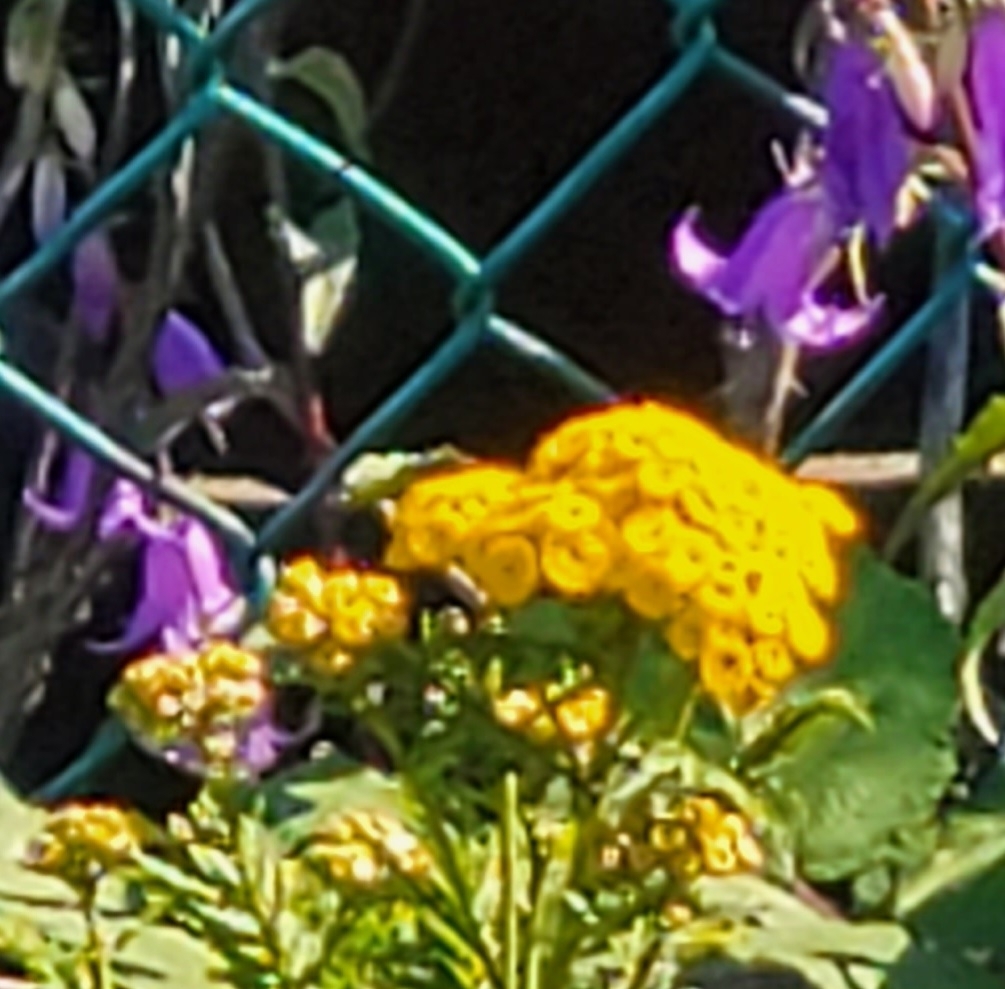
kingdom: Plantae
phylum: Tracheophyta
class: Magnoliopsida
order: Asterales
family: Asteraceae
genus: Tanacetum
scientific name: Tanacetum vulgare
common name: Common tansy
